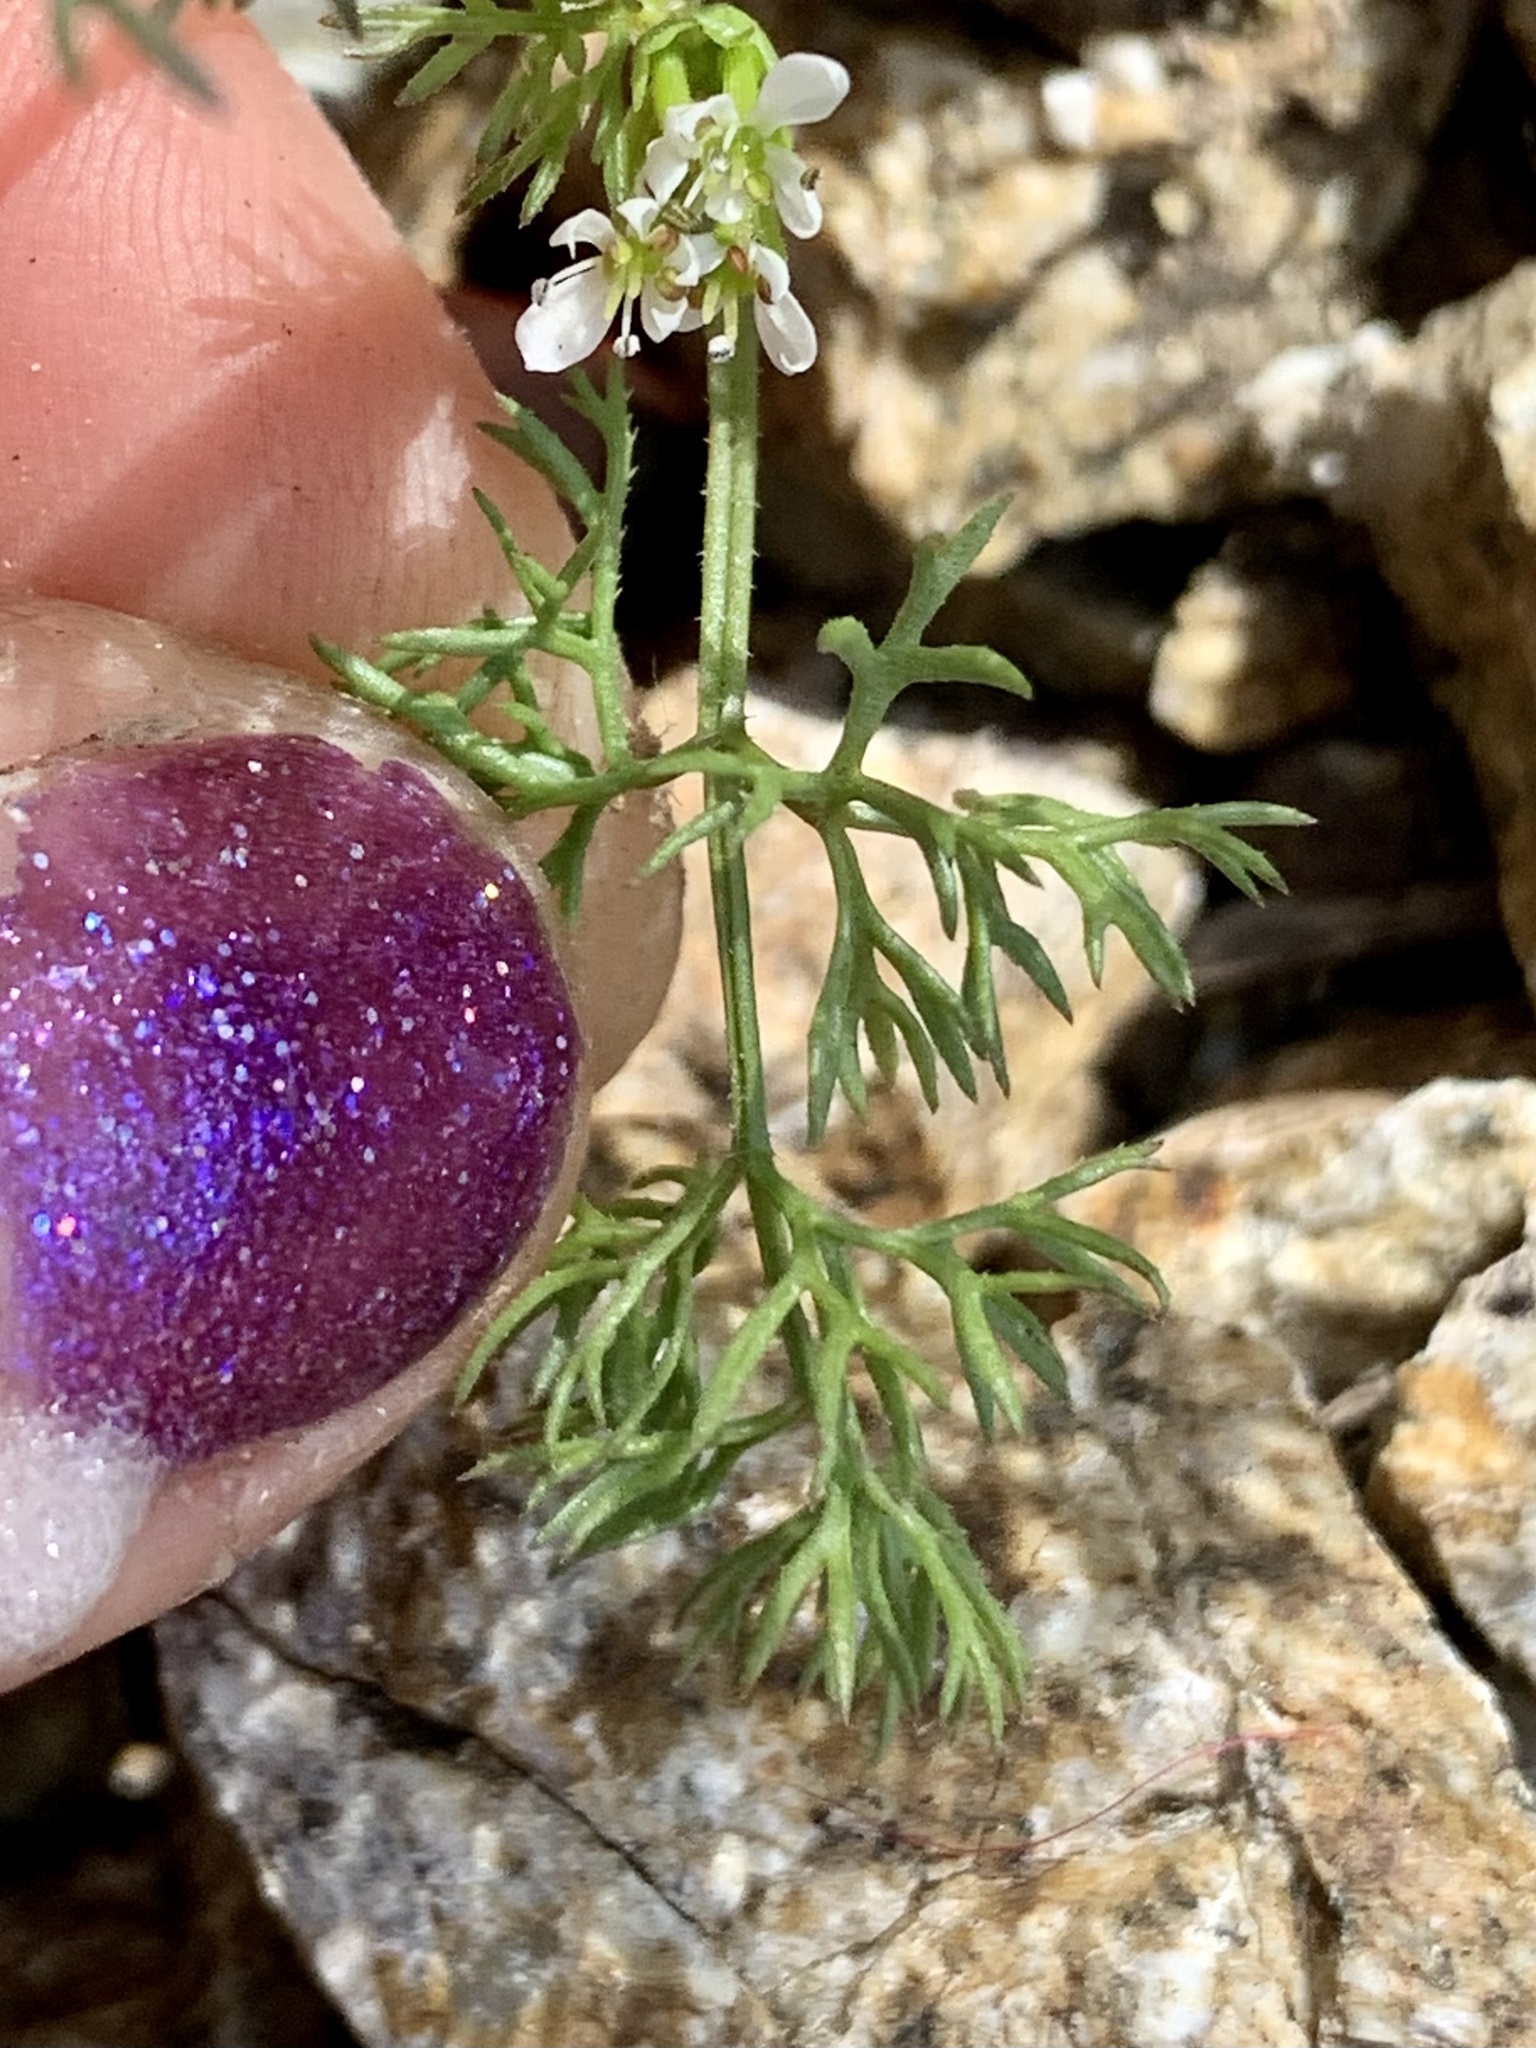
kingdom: Plantae
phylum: Tracheophyta
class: Magnoliopsida
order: Apiales
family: Apiaceae
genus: Scandix
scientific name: Scandix pecten-veneris
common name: Shepherd's-needle
